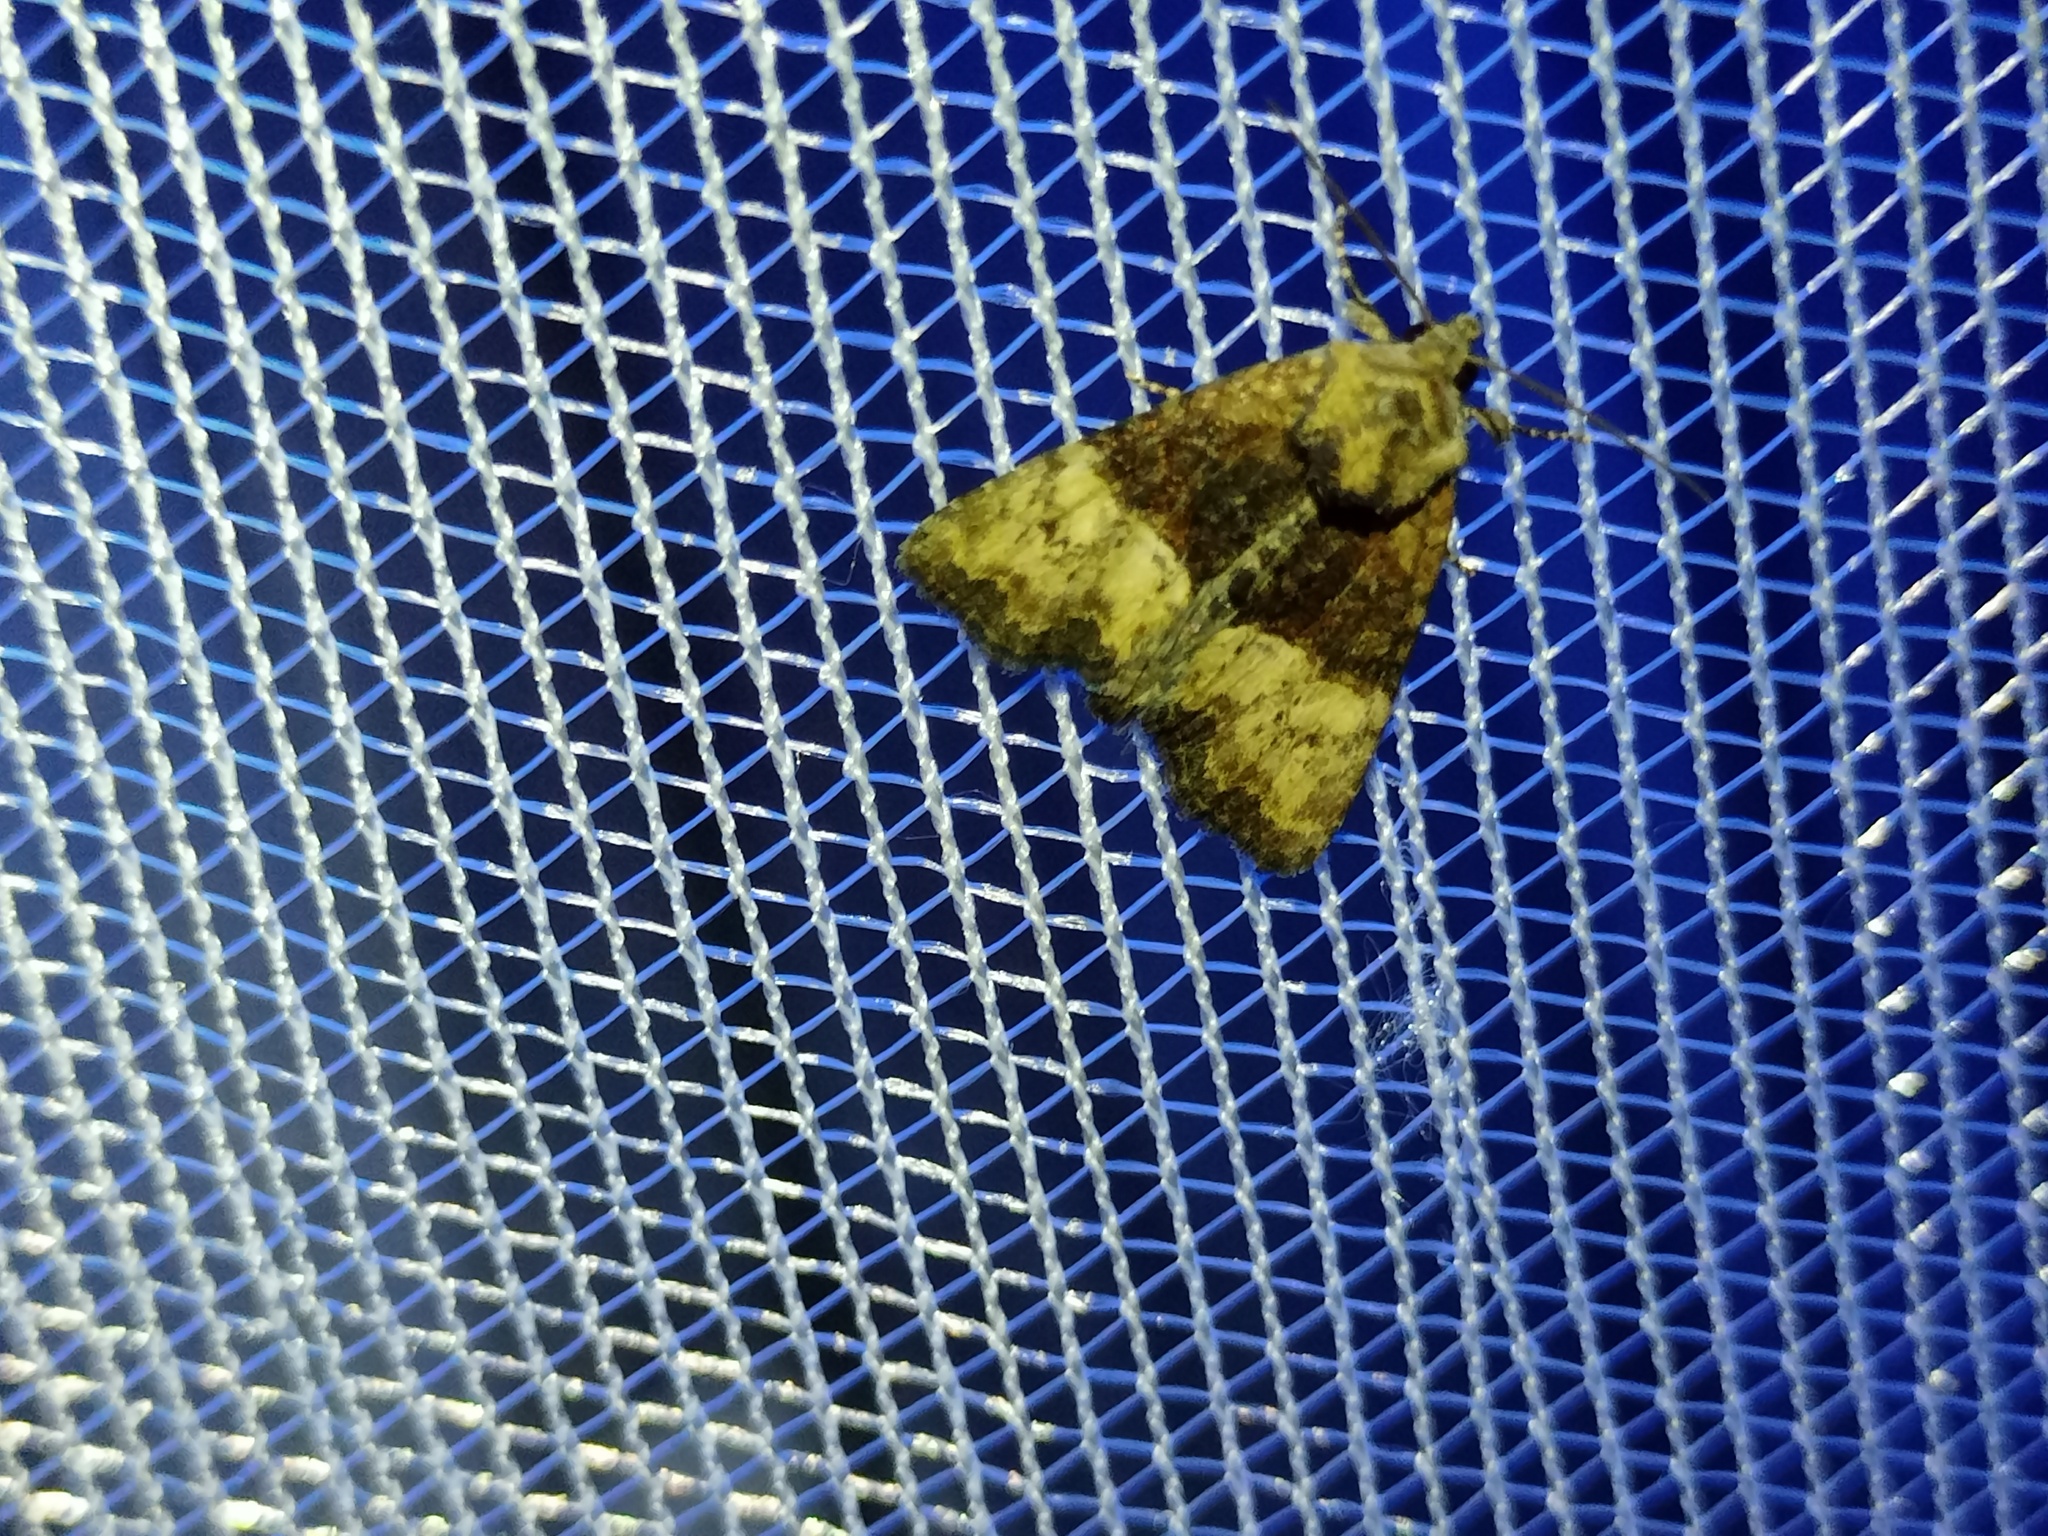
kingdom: Animalia
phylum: Arthropoda
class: Insecta
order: Lepidoptera
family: Noctuidae
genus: Mesoligia
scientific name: Mesoligia furuncula
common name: Cloaked minor
